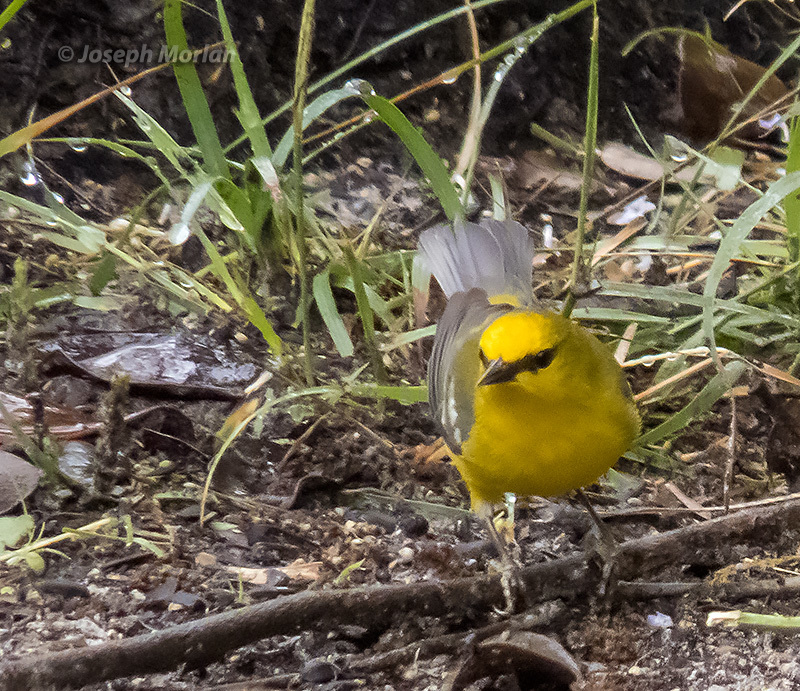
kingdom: Animalia
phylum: Chordata
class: Aves
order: Passeriformes
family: Parulidae
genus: Vermivora
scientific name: Vermivora cyanoptera
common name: Blue-winged warbler
